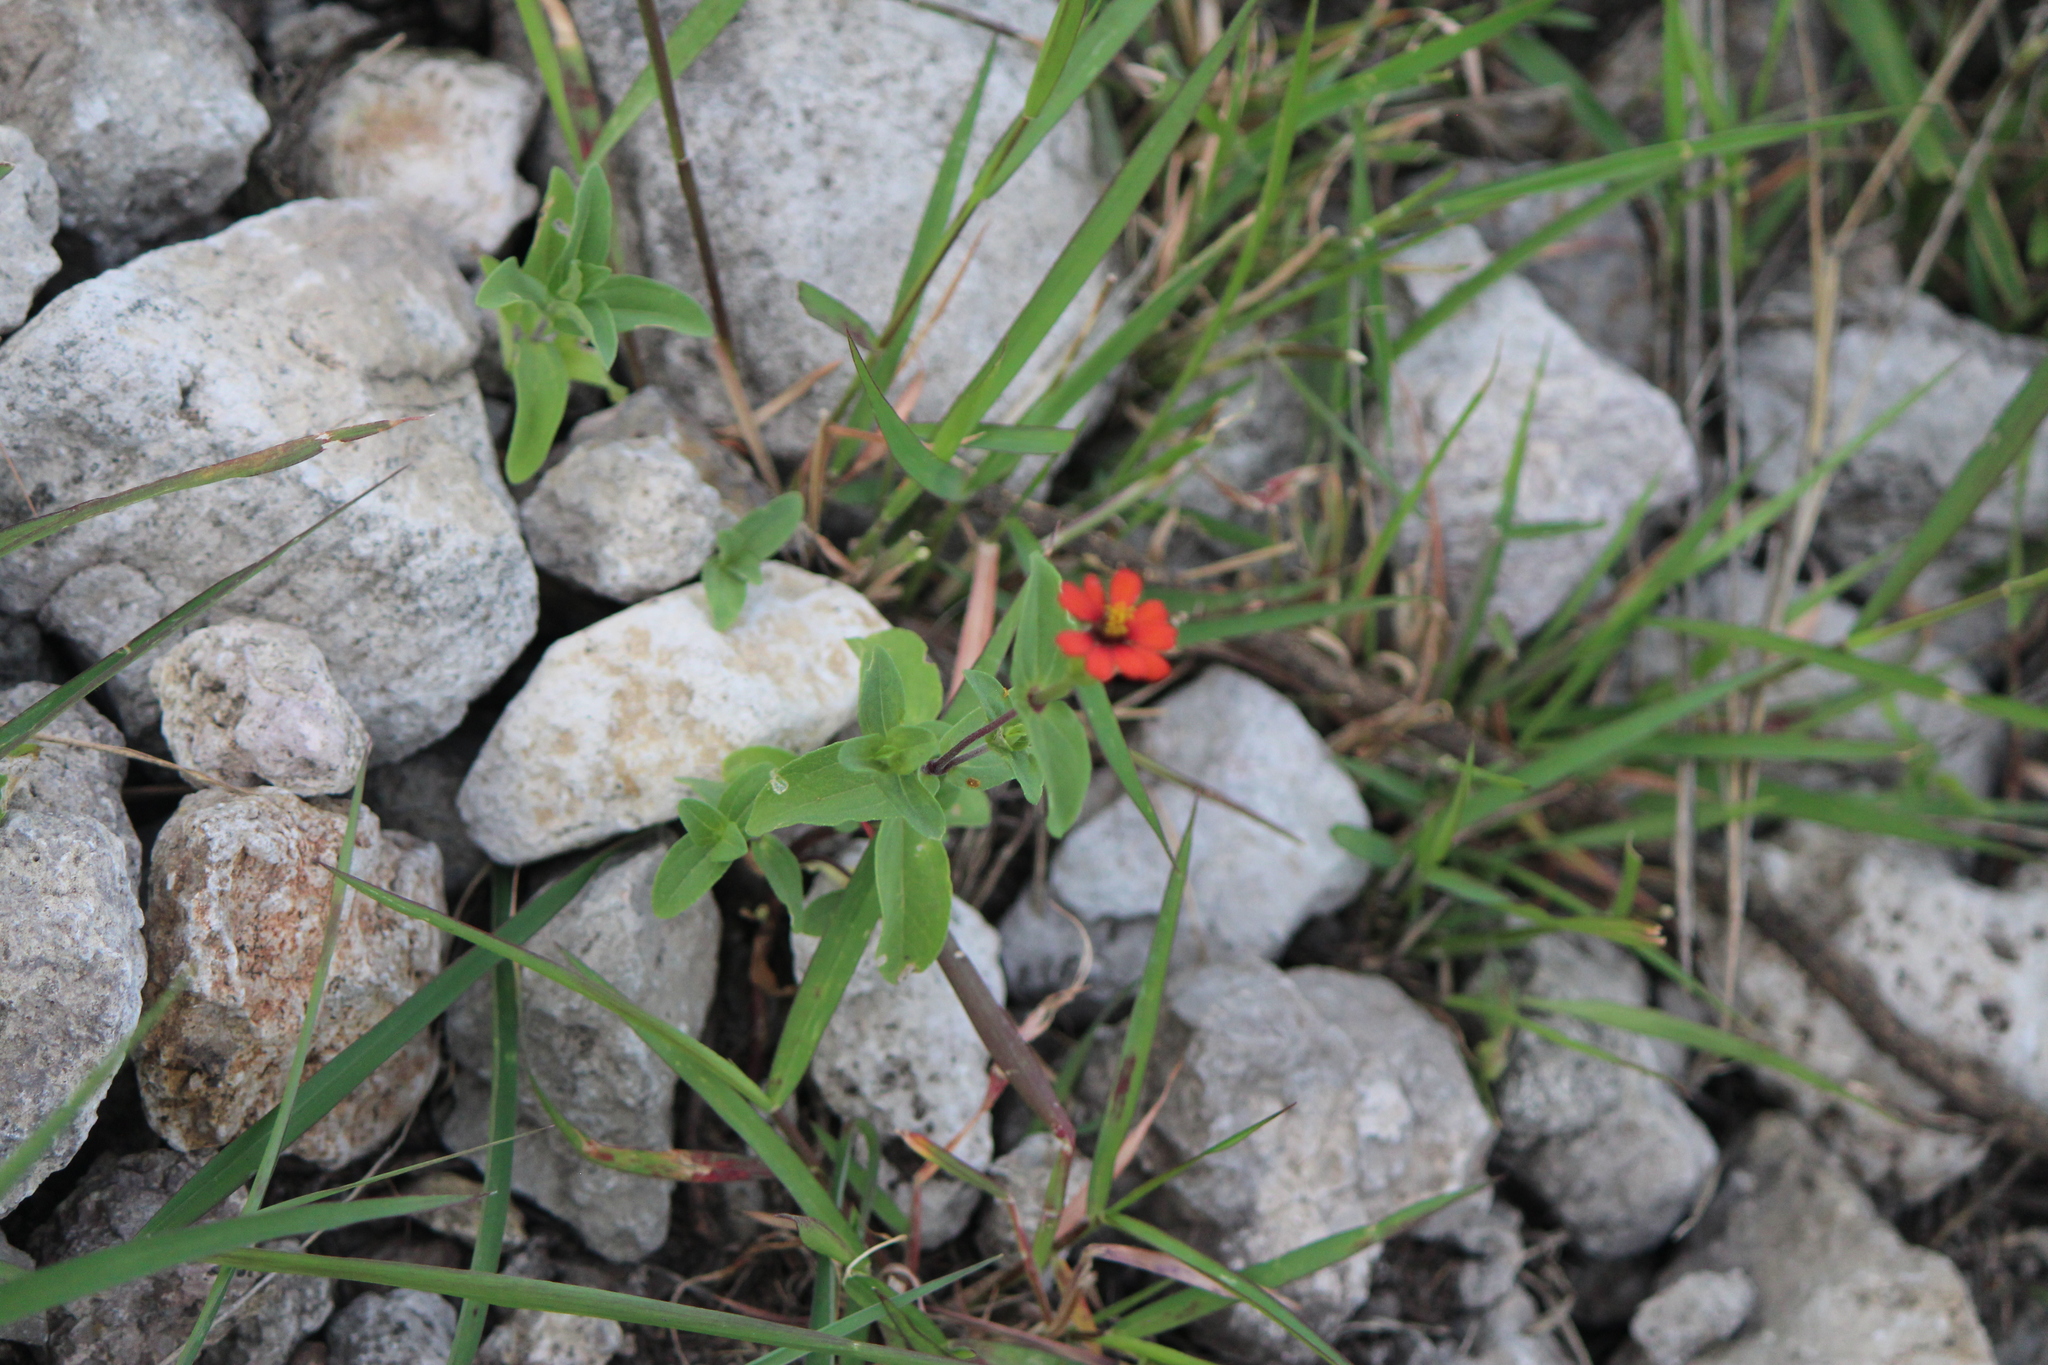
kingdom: Plantae
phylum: Tracheophyta
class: Magnoliopsida
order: Asterales
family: Asteraceae
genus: Zinnia
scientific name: Zinnia peruviana
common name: Peruvian zinnia
